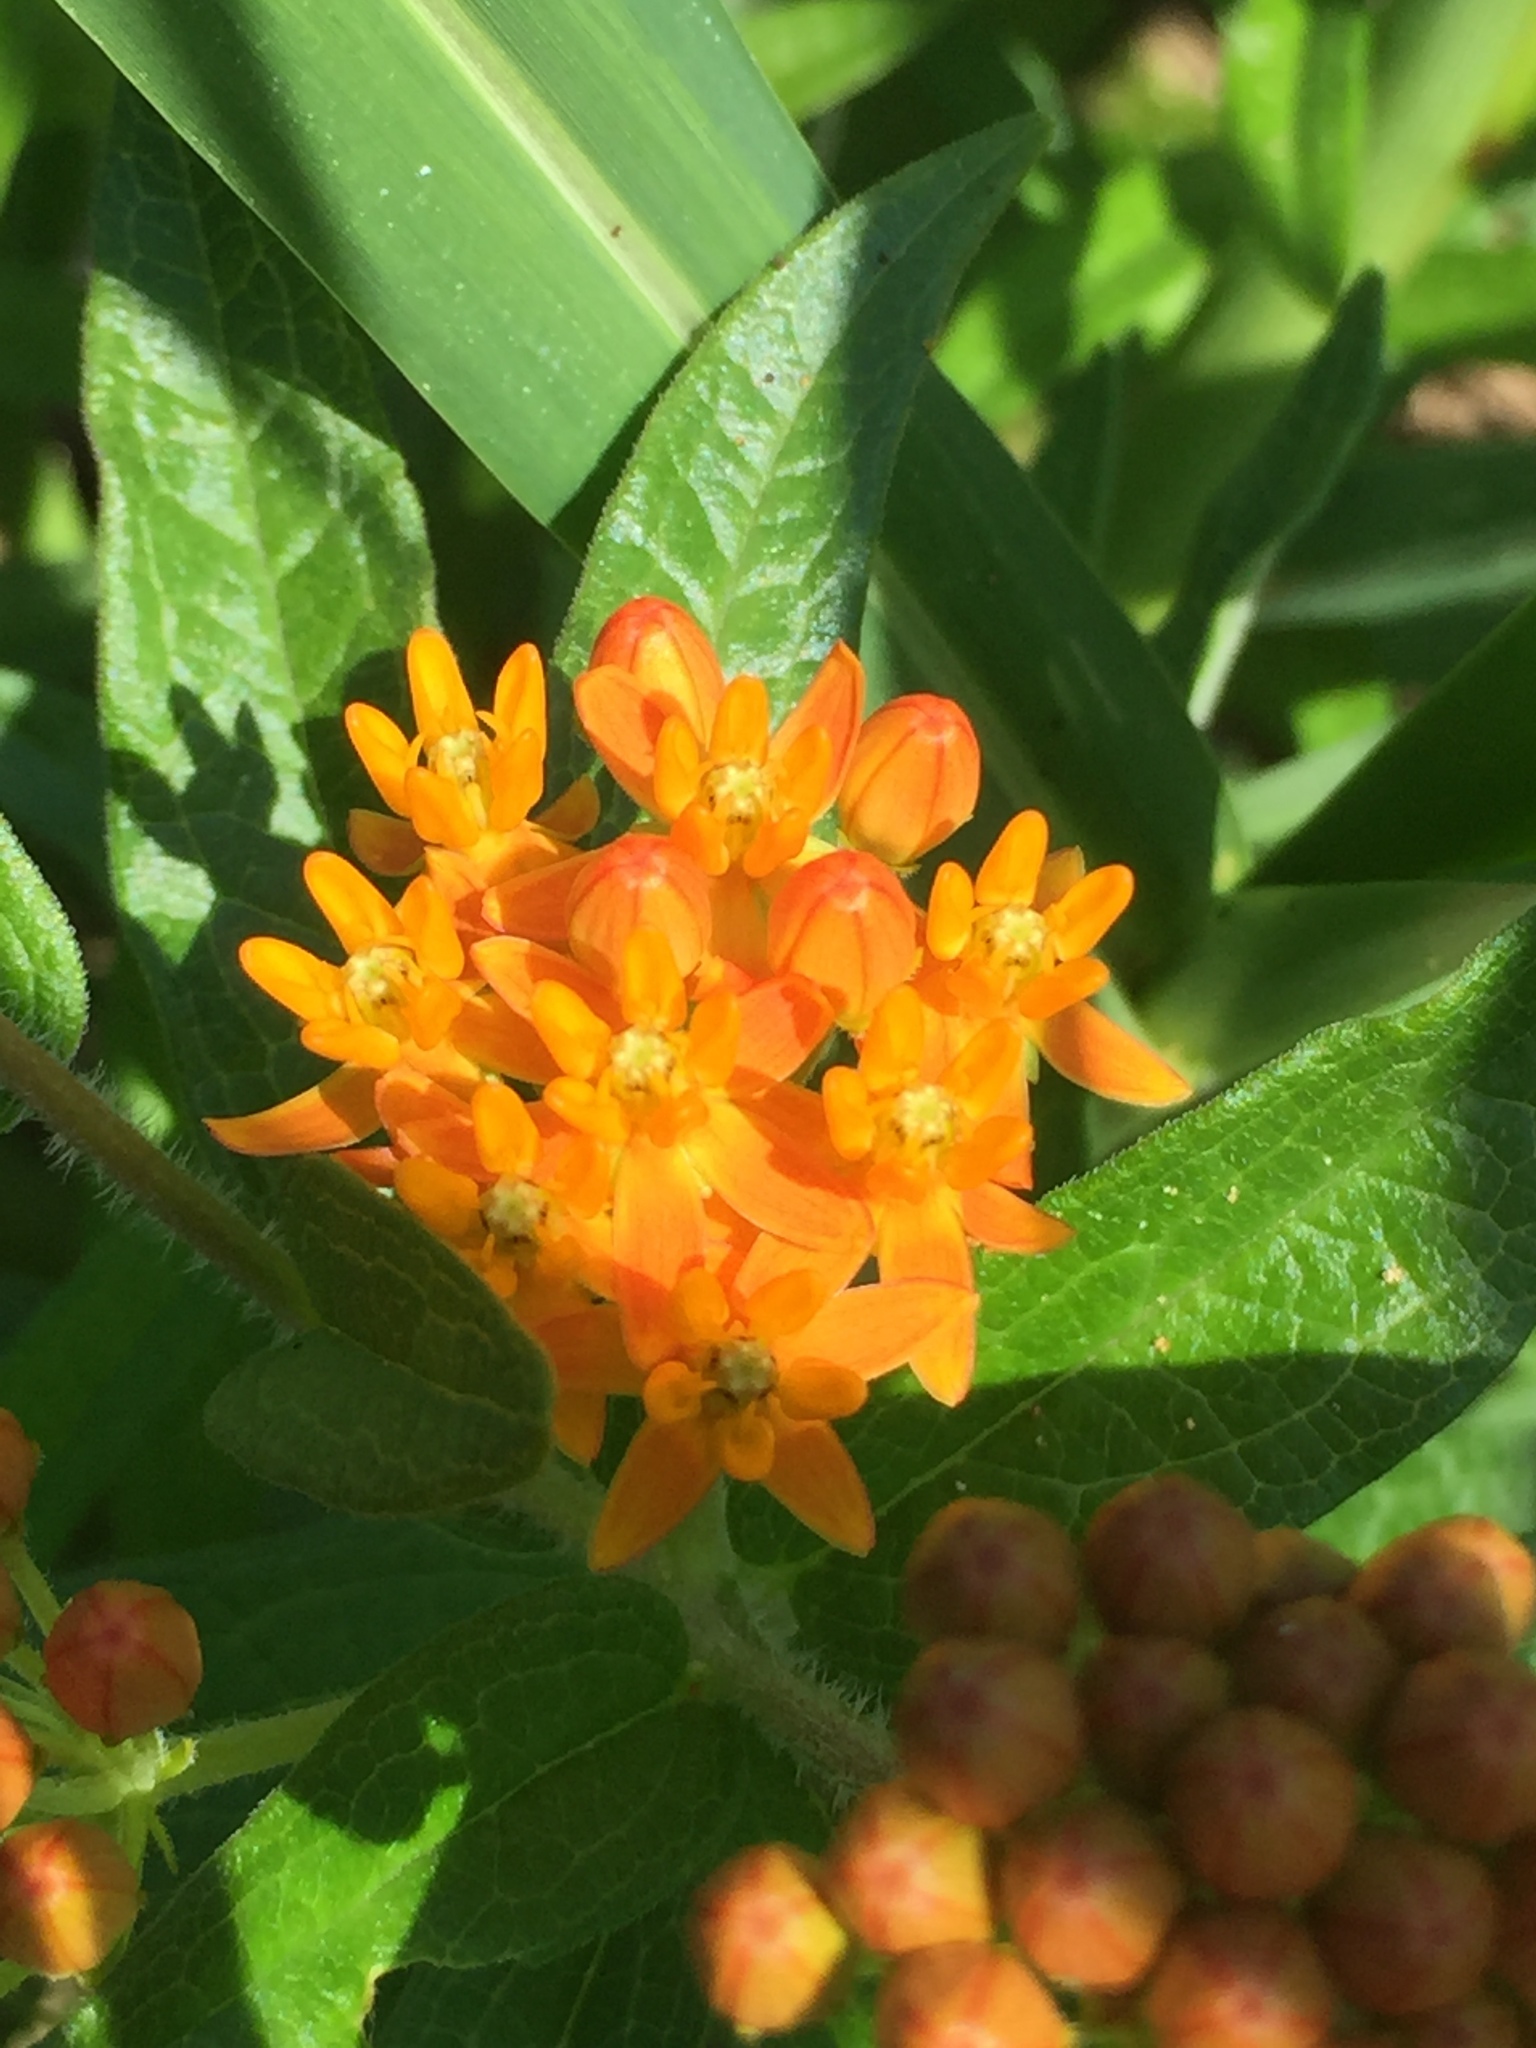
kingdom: Plantae
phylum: Tracheophyta
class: Magnoliopsida
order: Gentianales
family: Apocynaceae
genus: Asclepias
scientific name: Asclepias tuberosa
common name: Butterfly milkweed
